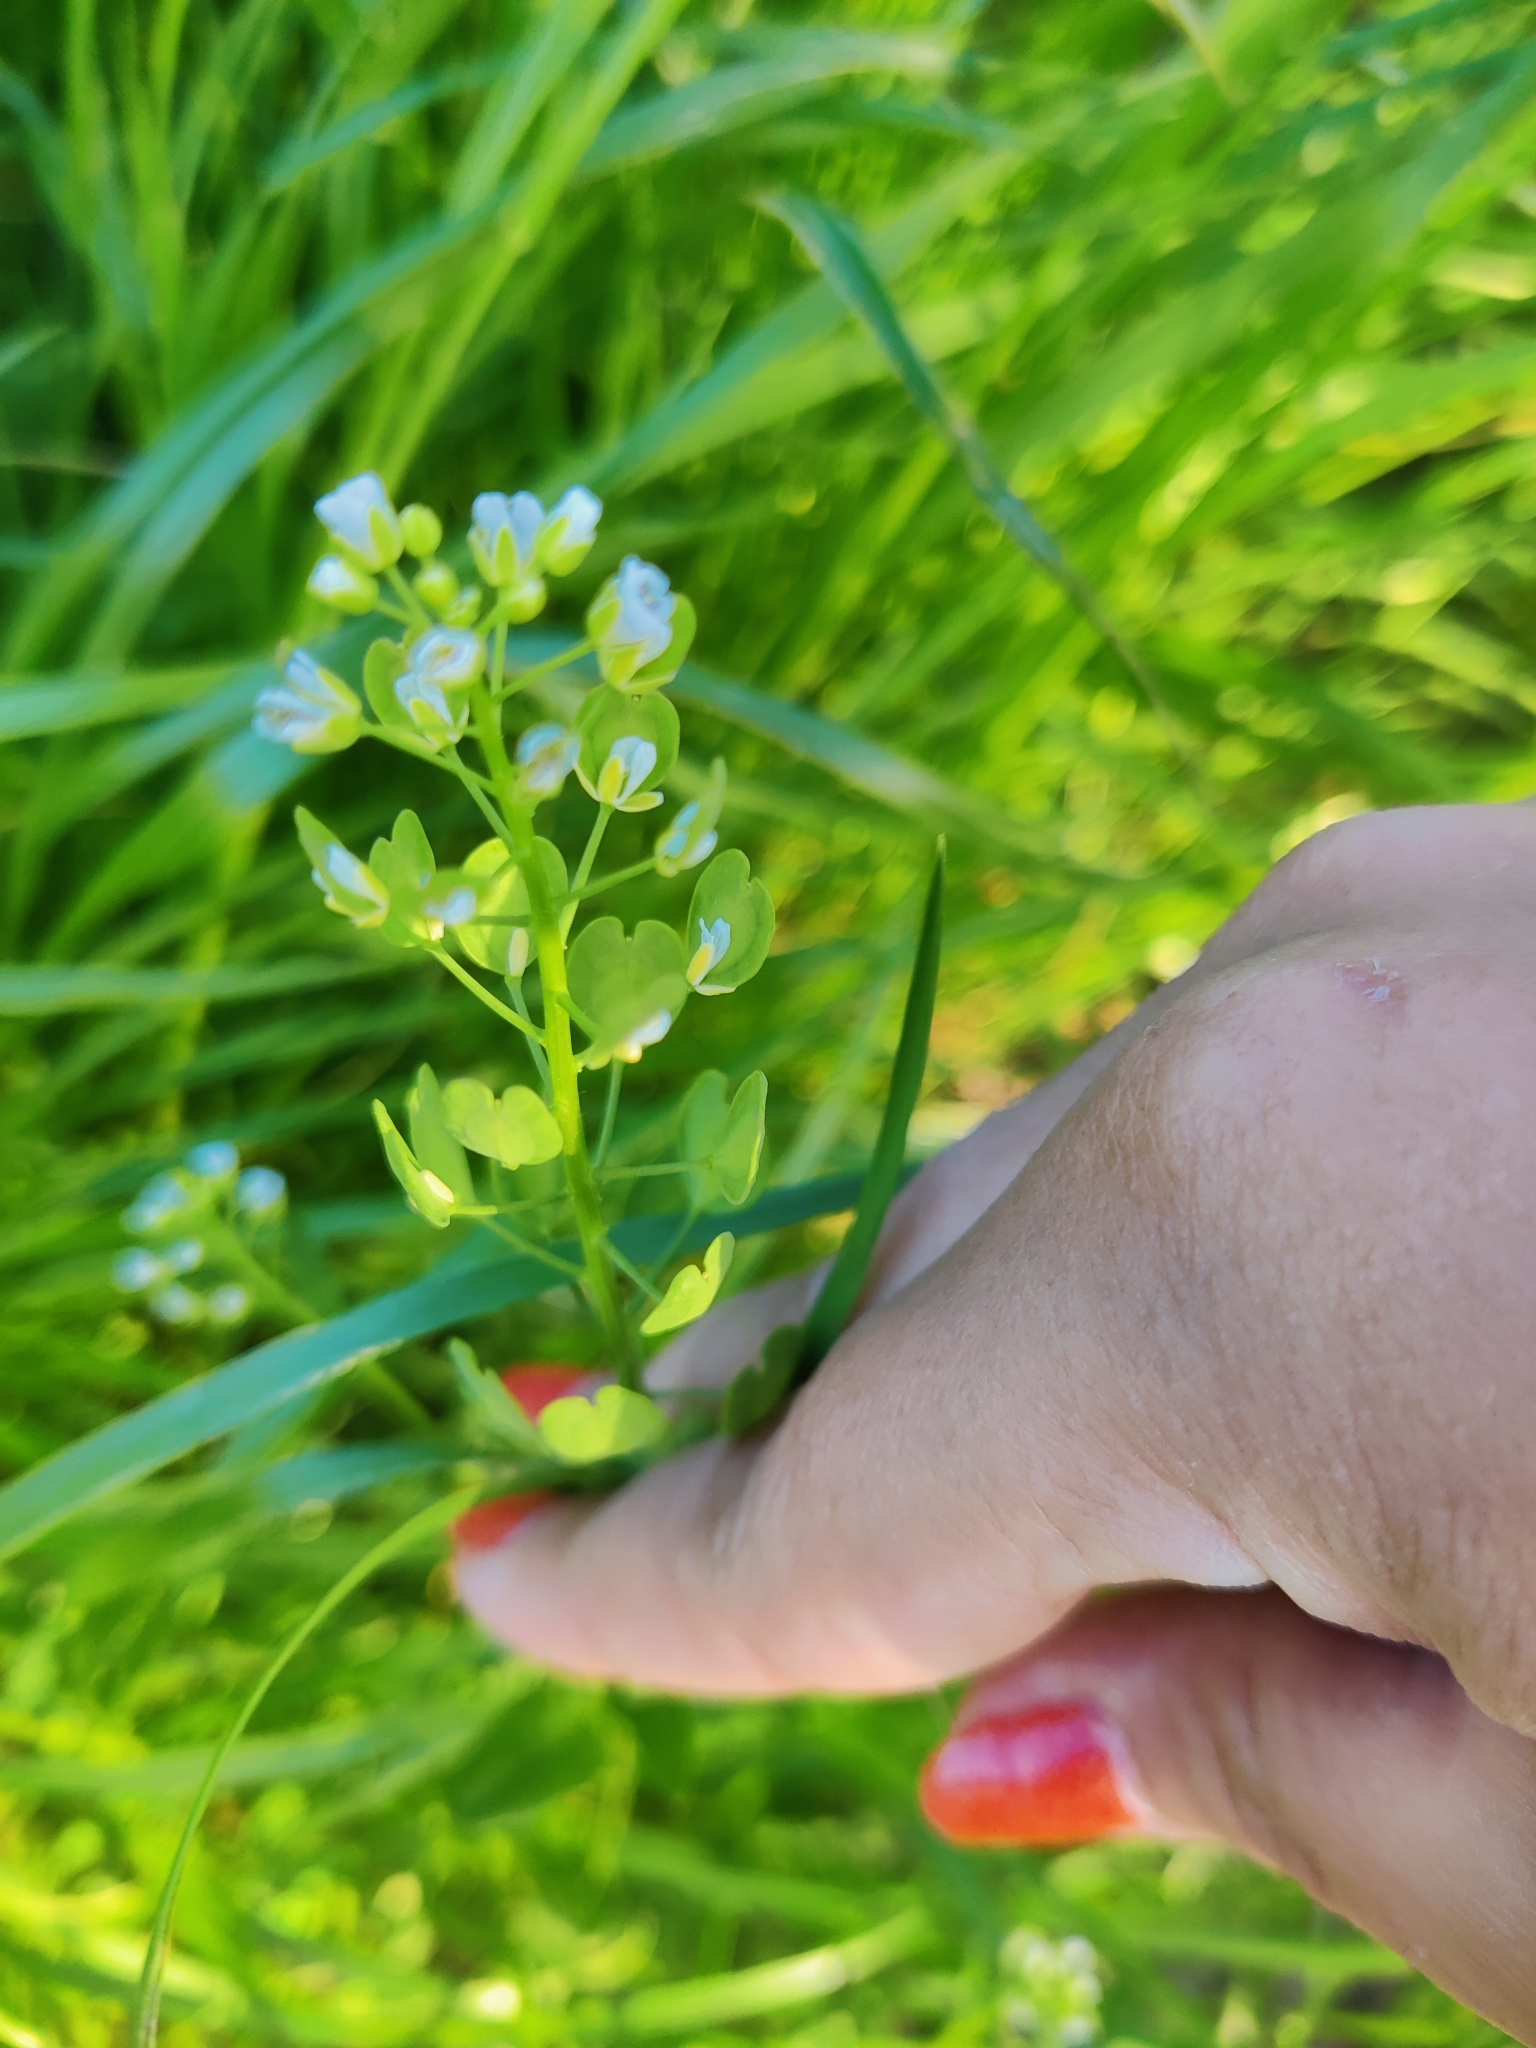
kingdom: Plantae
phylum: Tracheophyta
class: Magnoliopsida
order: Brassicales
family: Brassicaceae
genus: Thlaspi
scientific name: Thlaspi arvense
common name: Field pennycress
